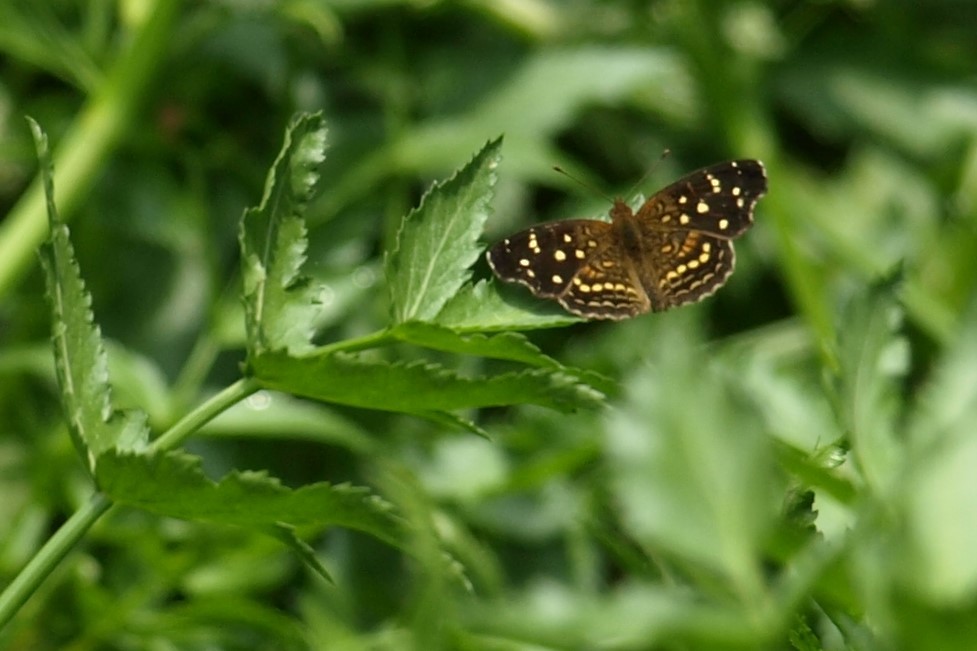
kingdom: Animalia
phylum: Arthropoda
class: Insecta
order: Lepidoptera
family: Nymphalidae
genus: Anthanassa
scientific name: Anthanassa texana
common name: Texan crescent
